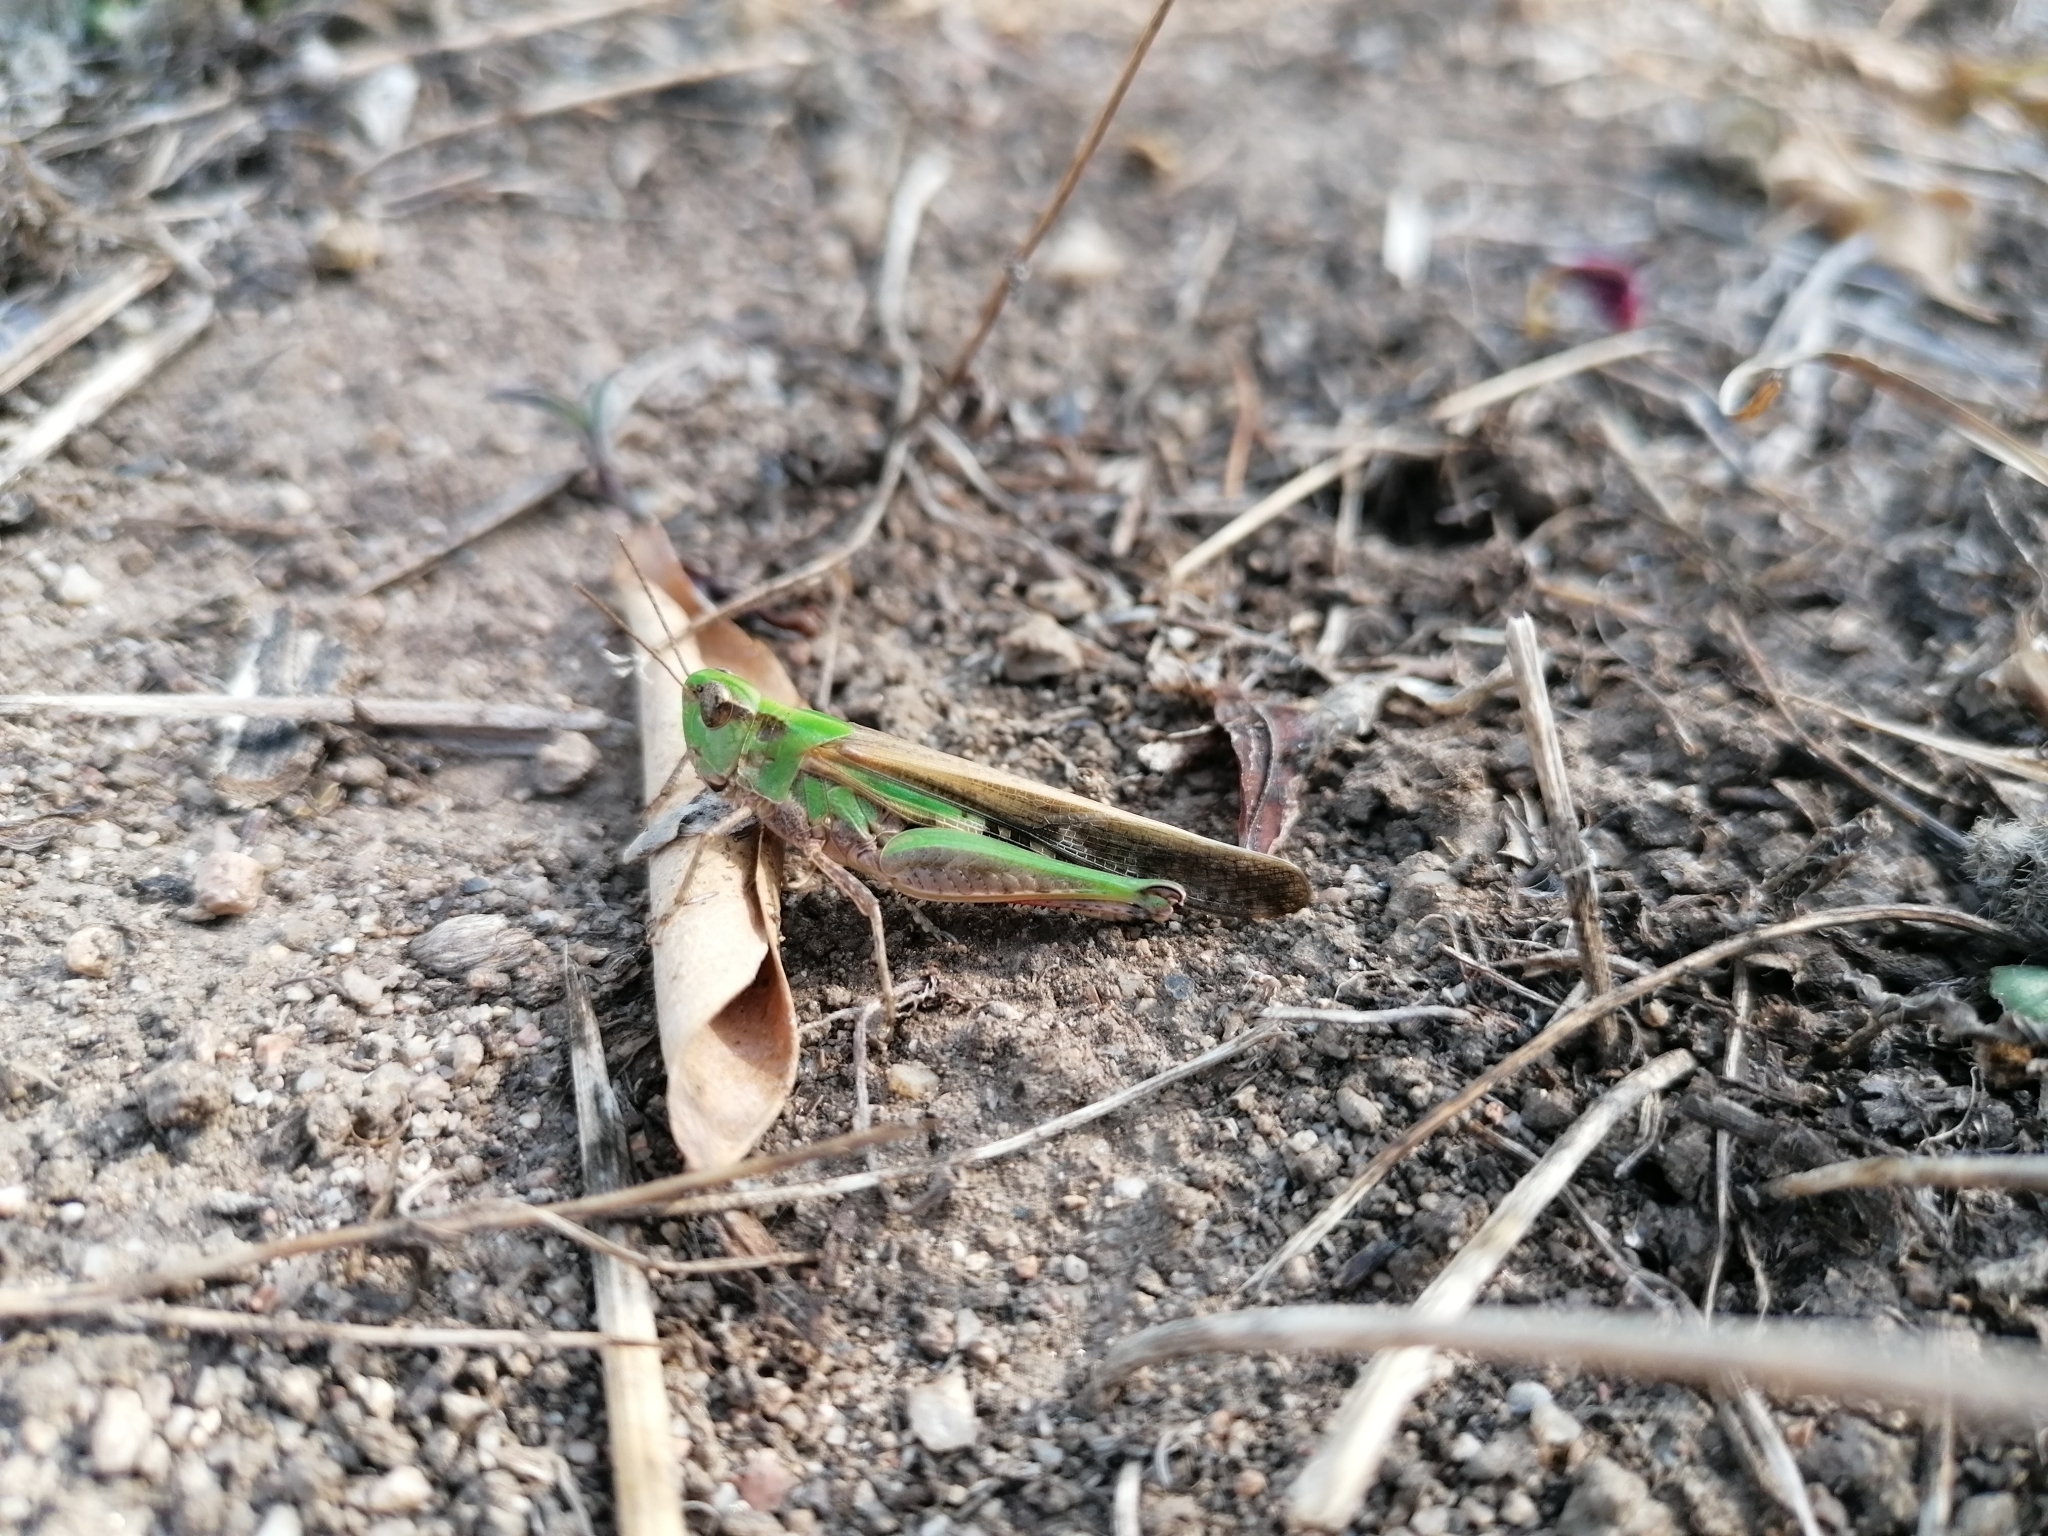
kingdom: Animalia
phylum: Arthropoda
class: Insecta
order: Orthoptera
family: Acrididae
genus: Aiolopus
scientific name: Aiolopus puissanti
